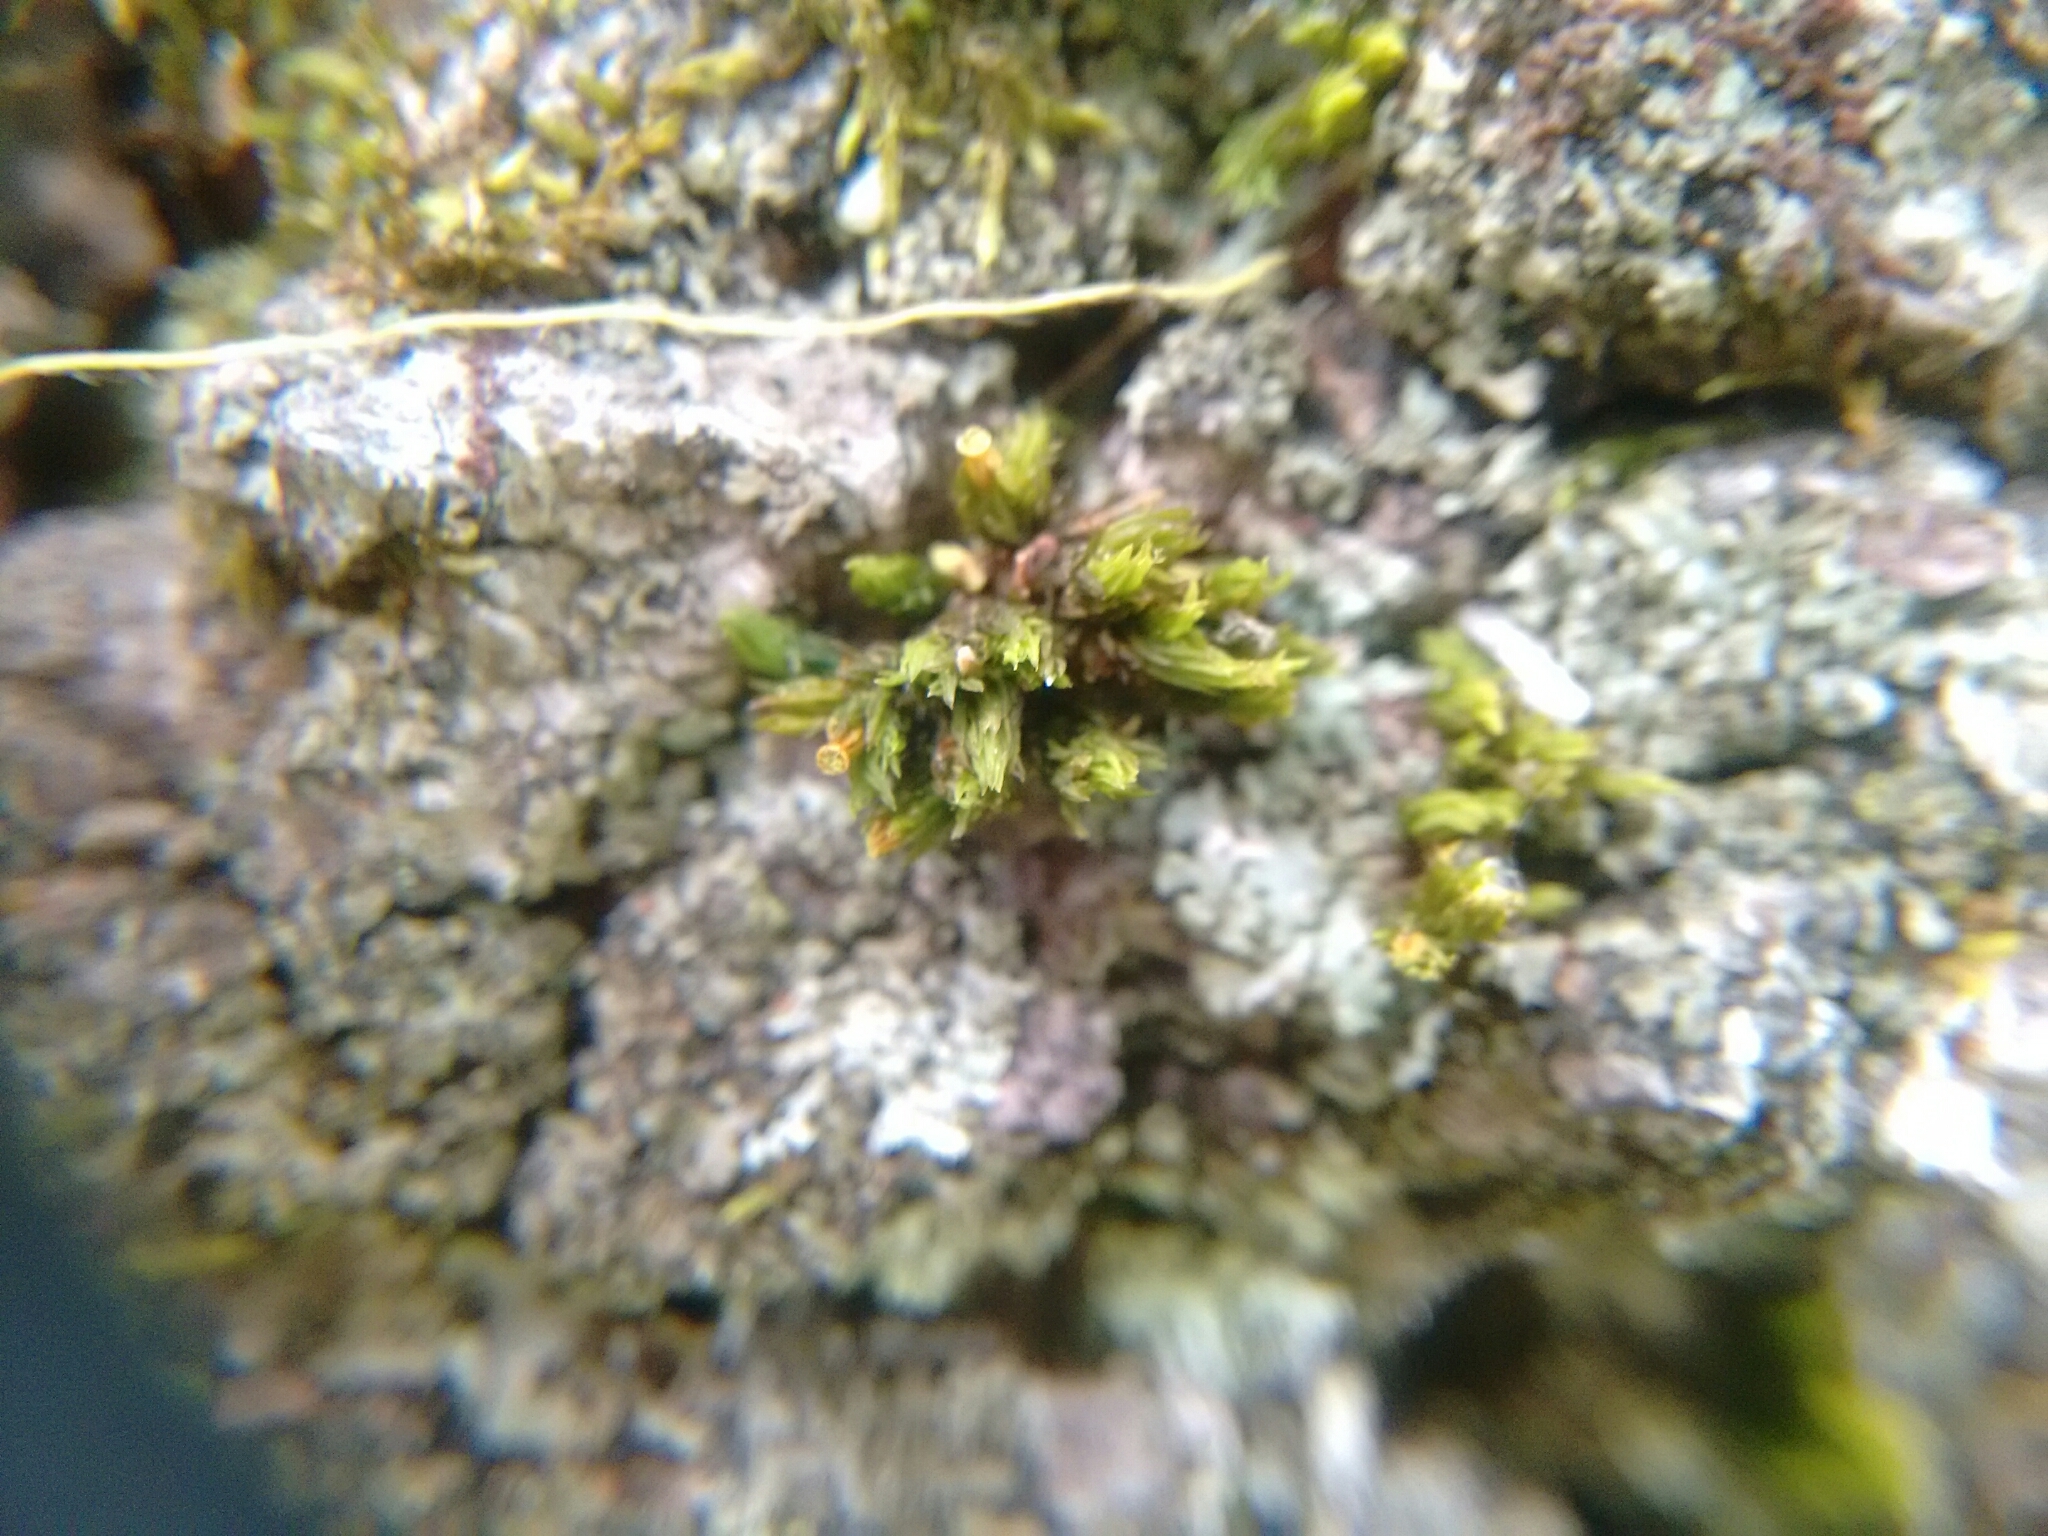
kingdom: Plantae
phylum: Bryophyta
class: Bryopsida
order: Orthotrichales
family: Orthotrichaceae
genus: Orthotrichum
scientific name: Orthotrichum stellatum
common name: Starlike bristle moss
